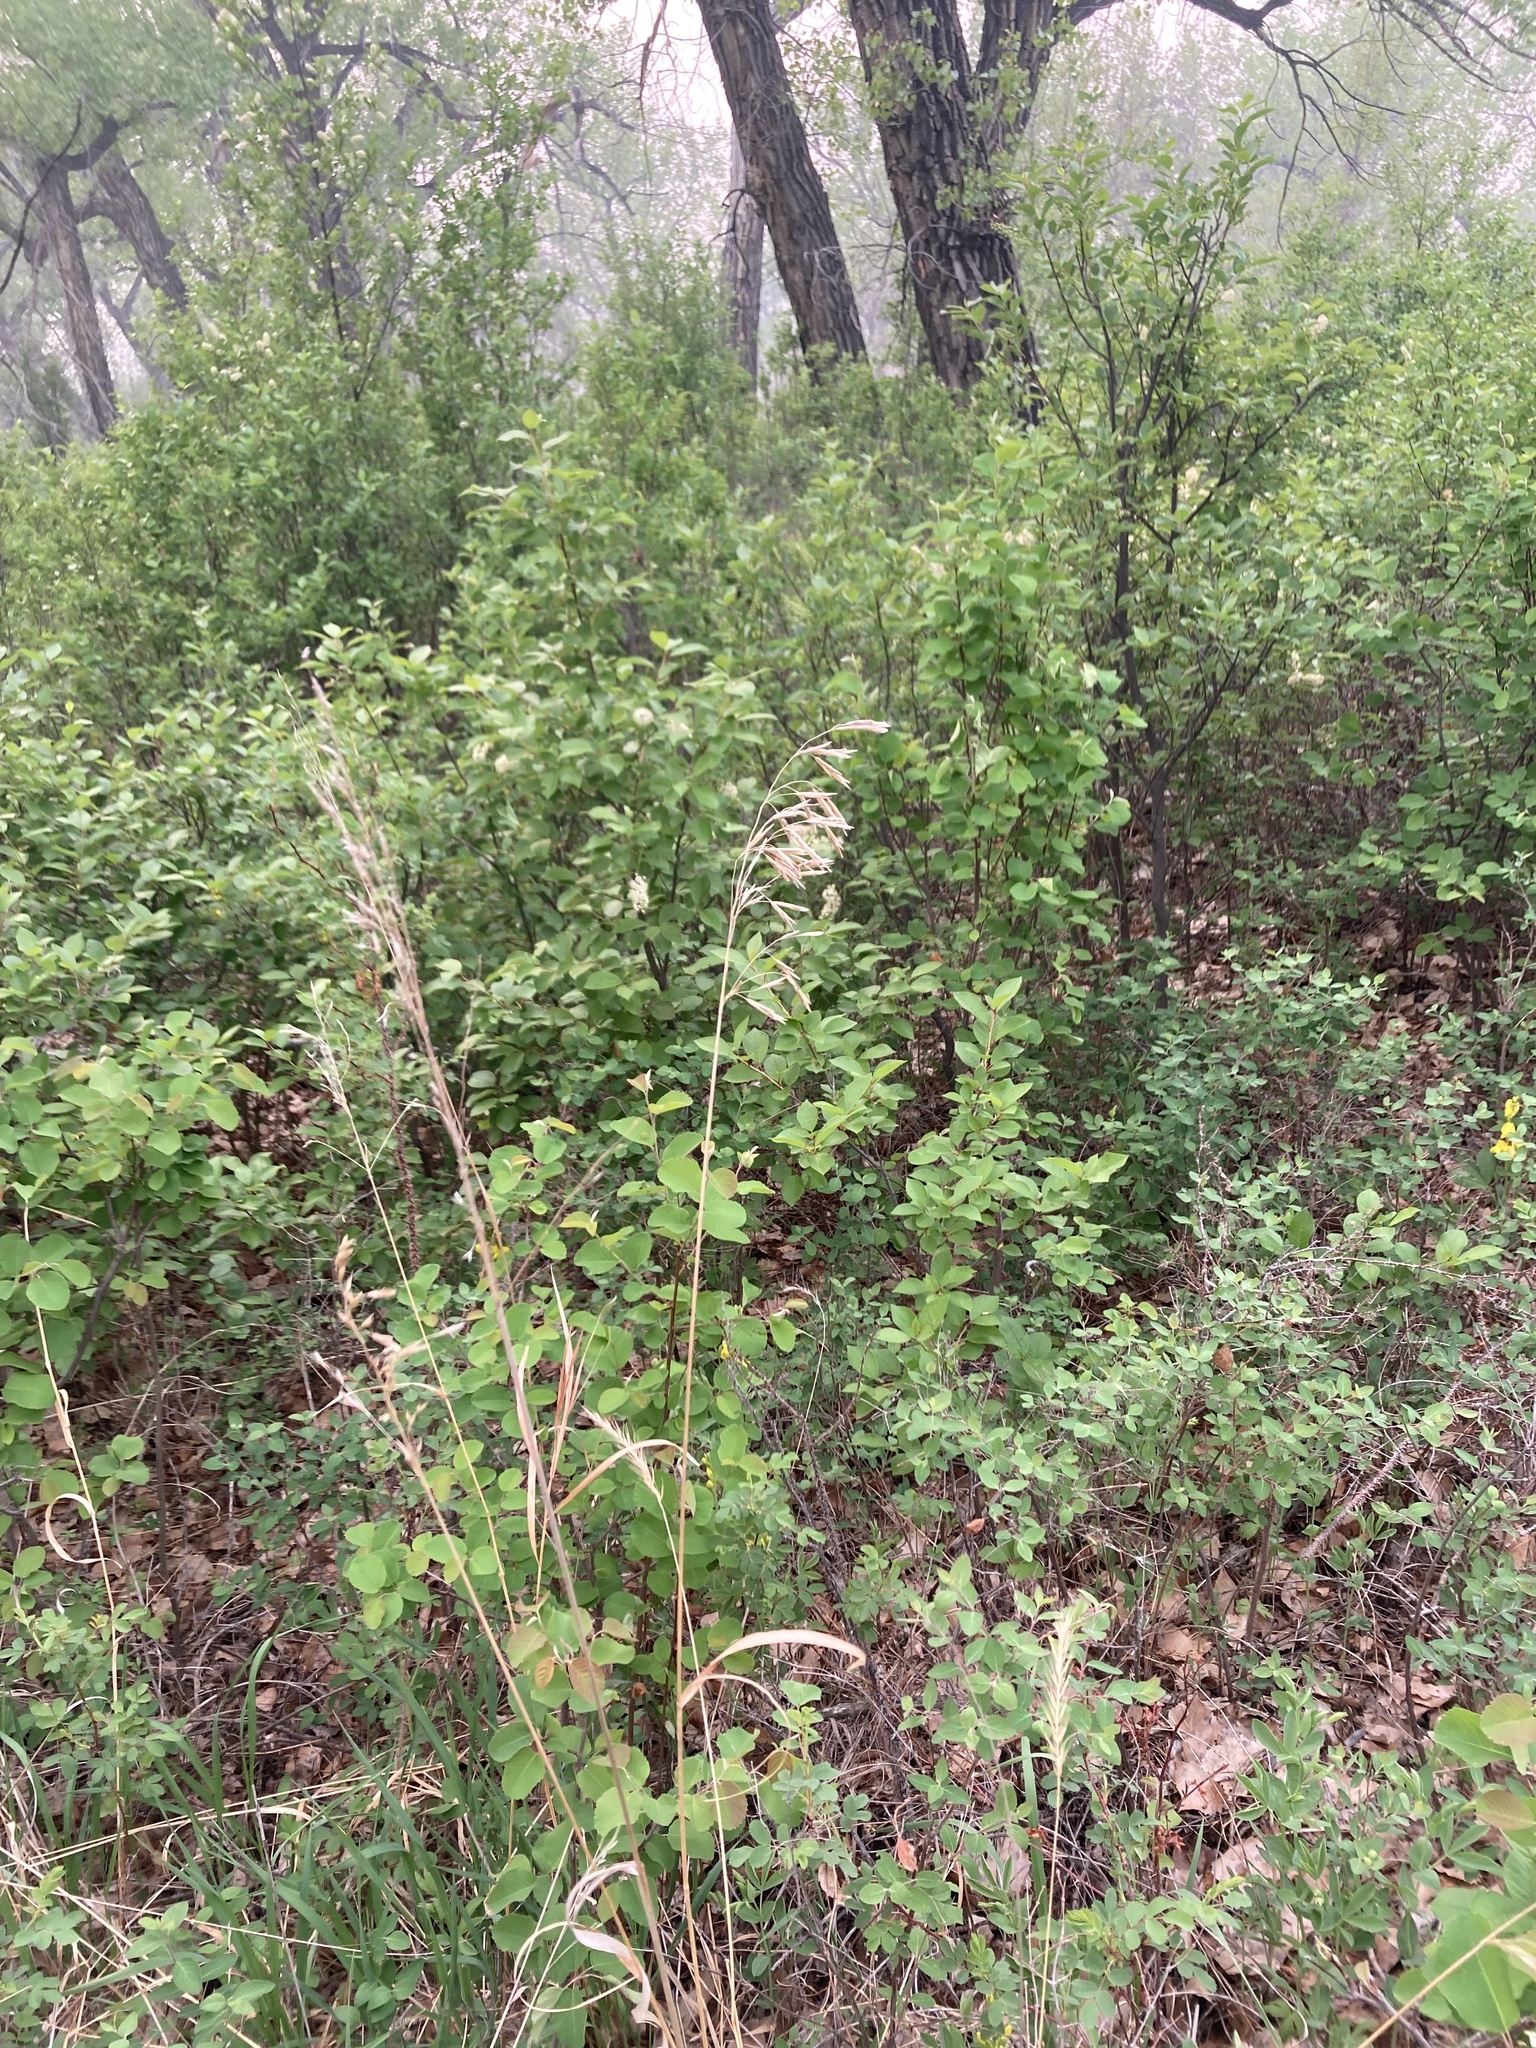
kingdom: Plantae
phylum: Tracheophyta
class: Liliopsida
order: Poales
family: Poaceae
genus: Bromus
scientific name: Bromus inermis
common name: Smooth brome
